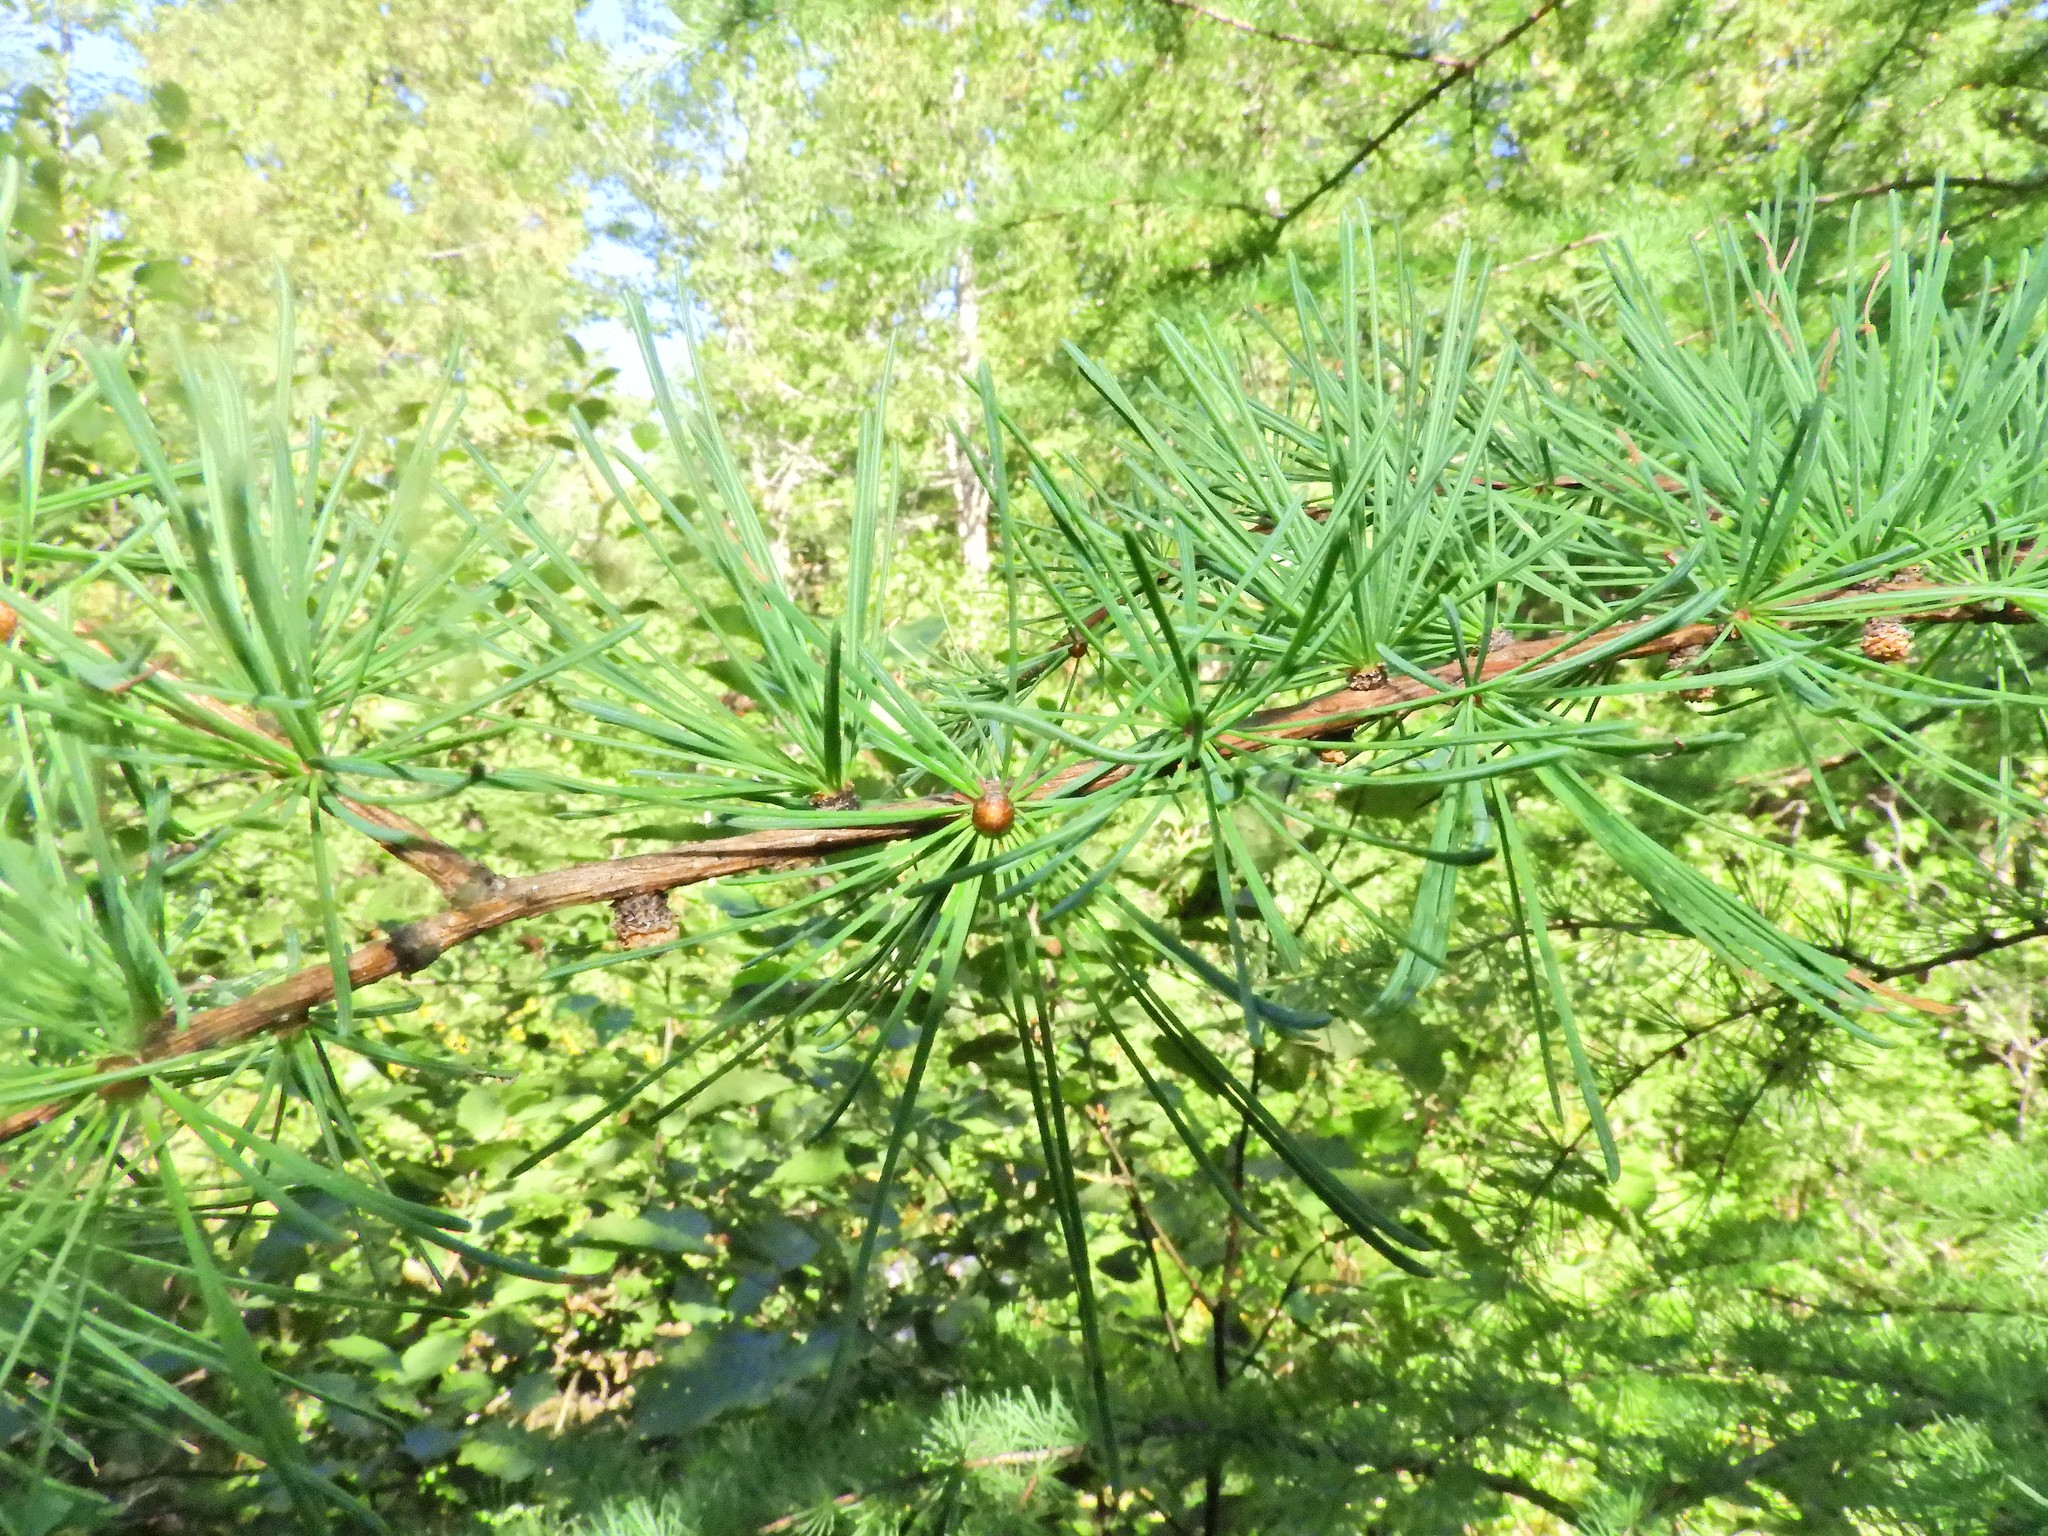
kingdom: Plantae
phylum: Tracheophyta
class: Pinopsida
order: Pinales
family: Pinaceae
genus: Larix
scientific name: Larix laricina
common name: American larch
